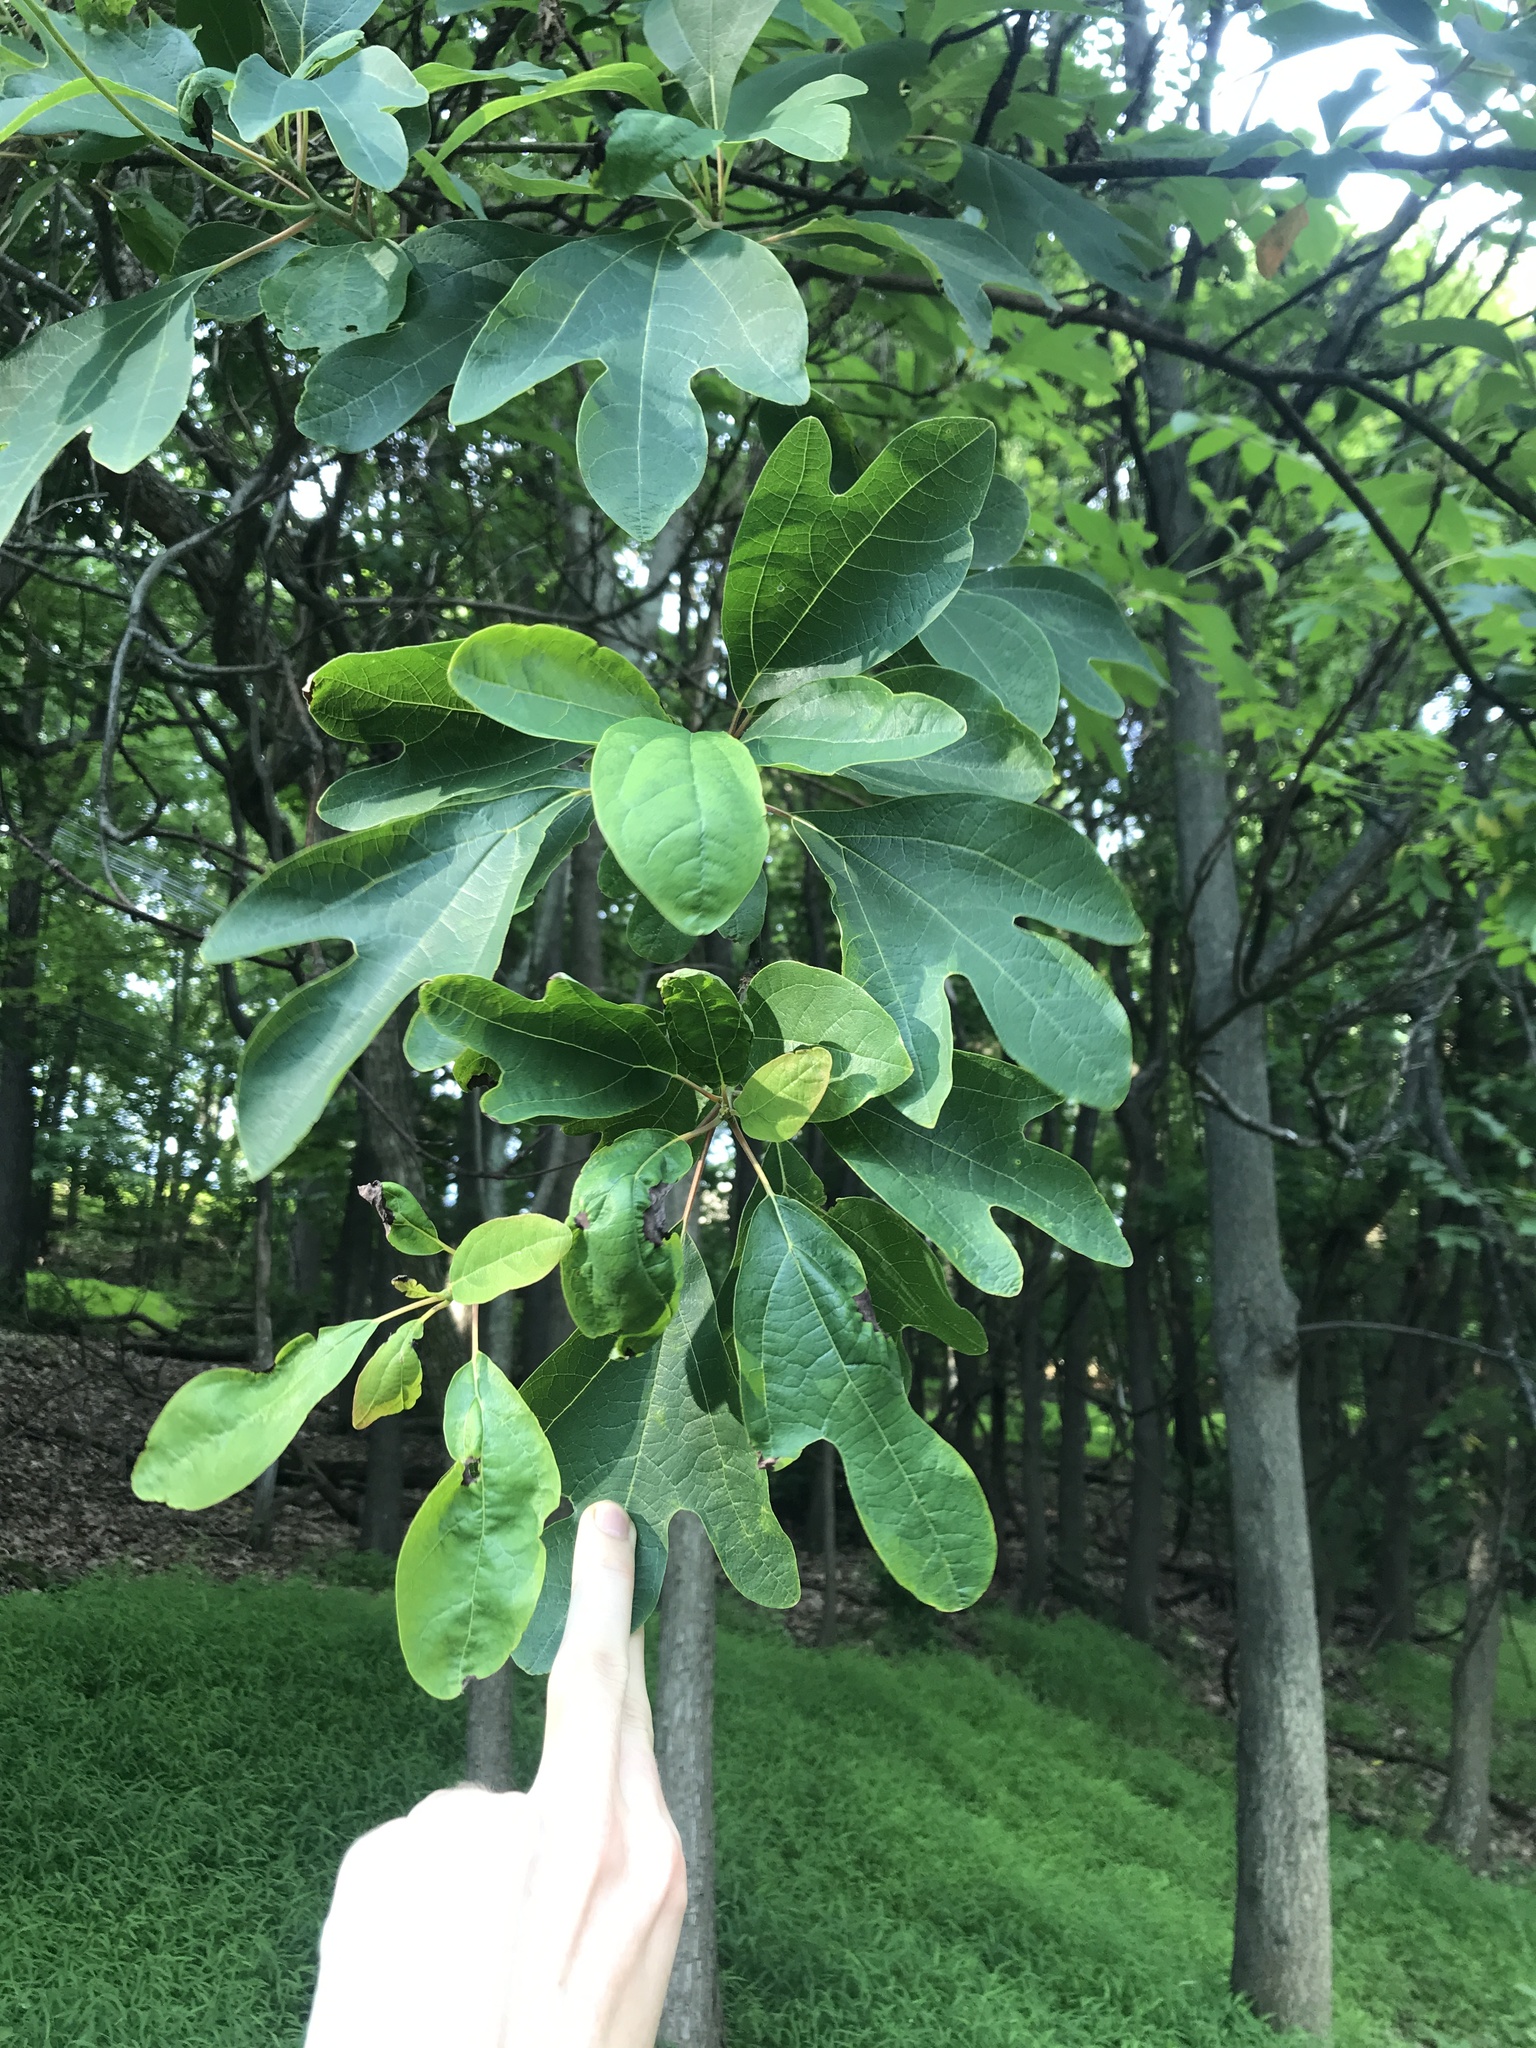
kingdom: Plantae
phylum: Tracheophyta
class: Magnoliopsida
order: Laurales
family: Lauraceae
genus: Sassafras
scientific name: Sassafras albidum
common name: Sassafras
